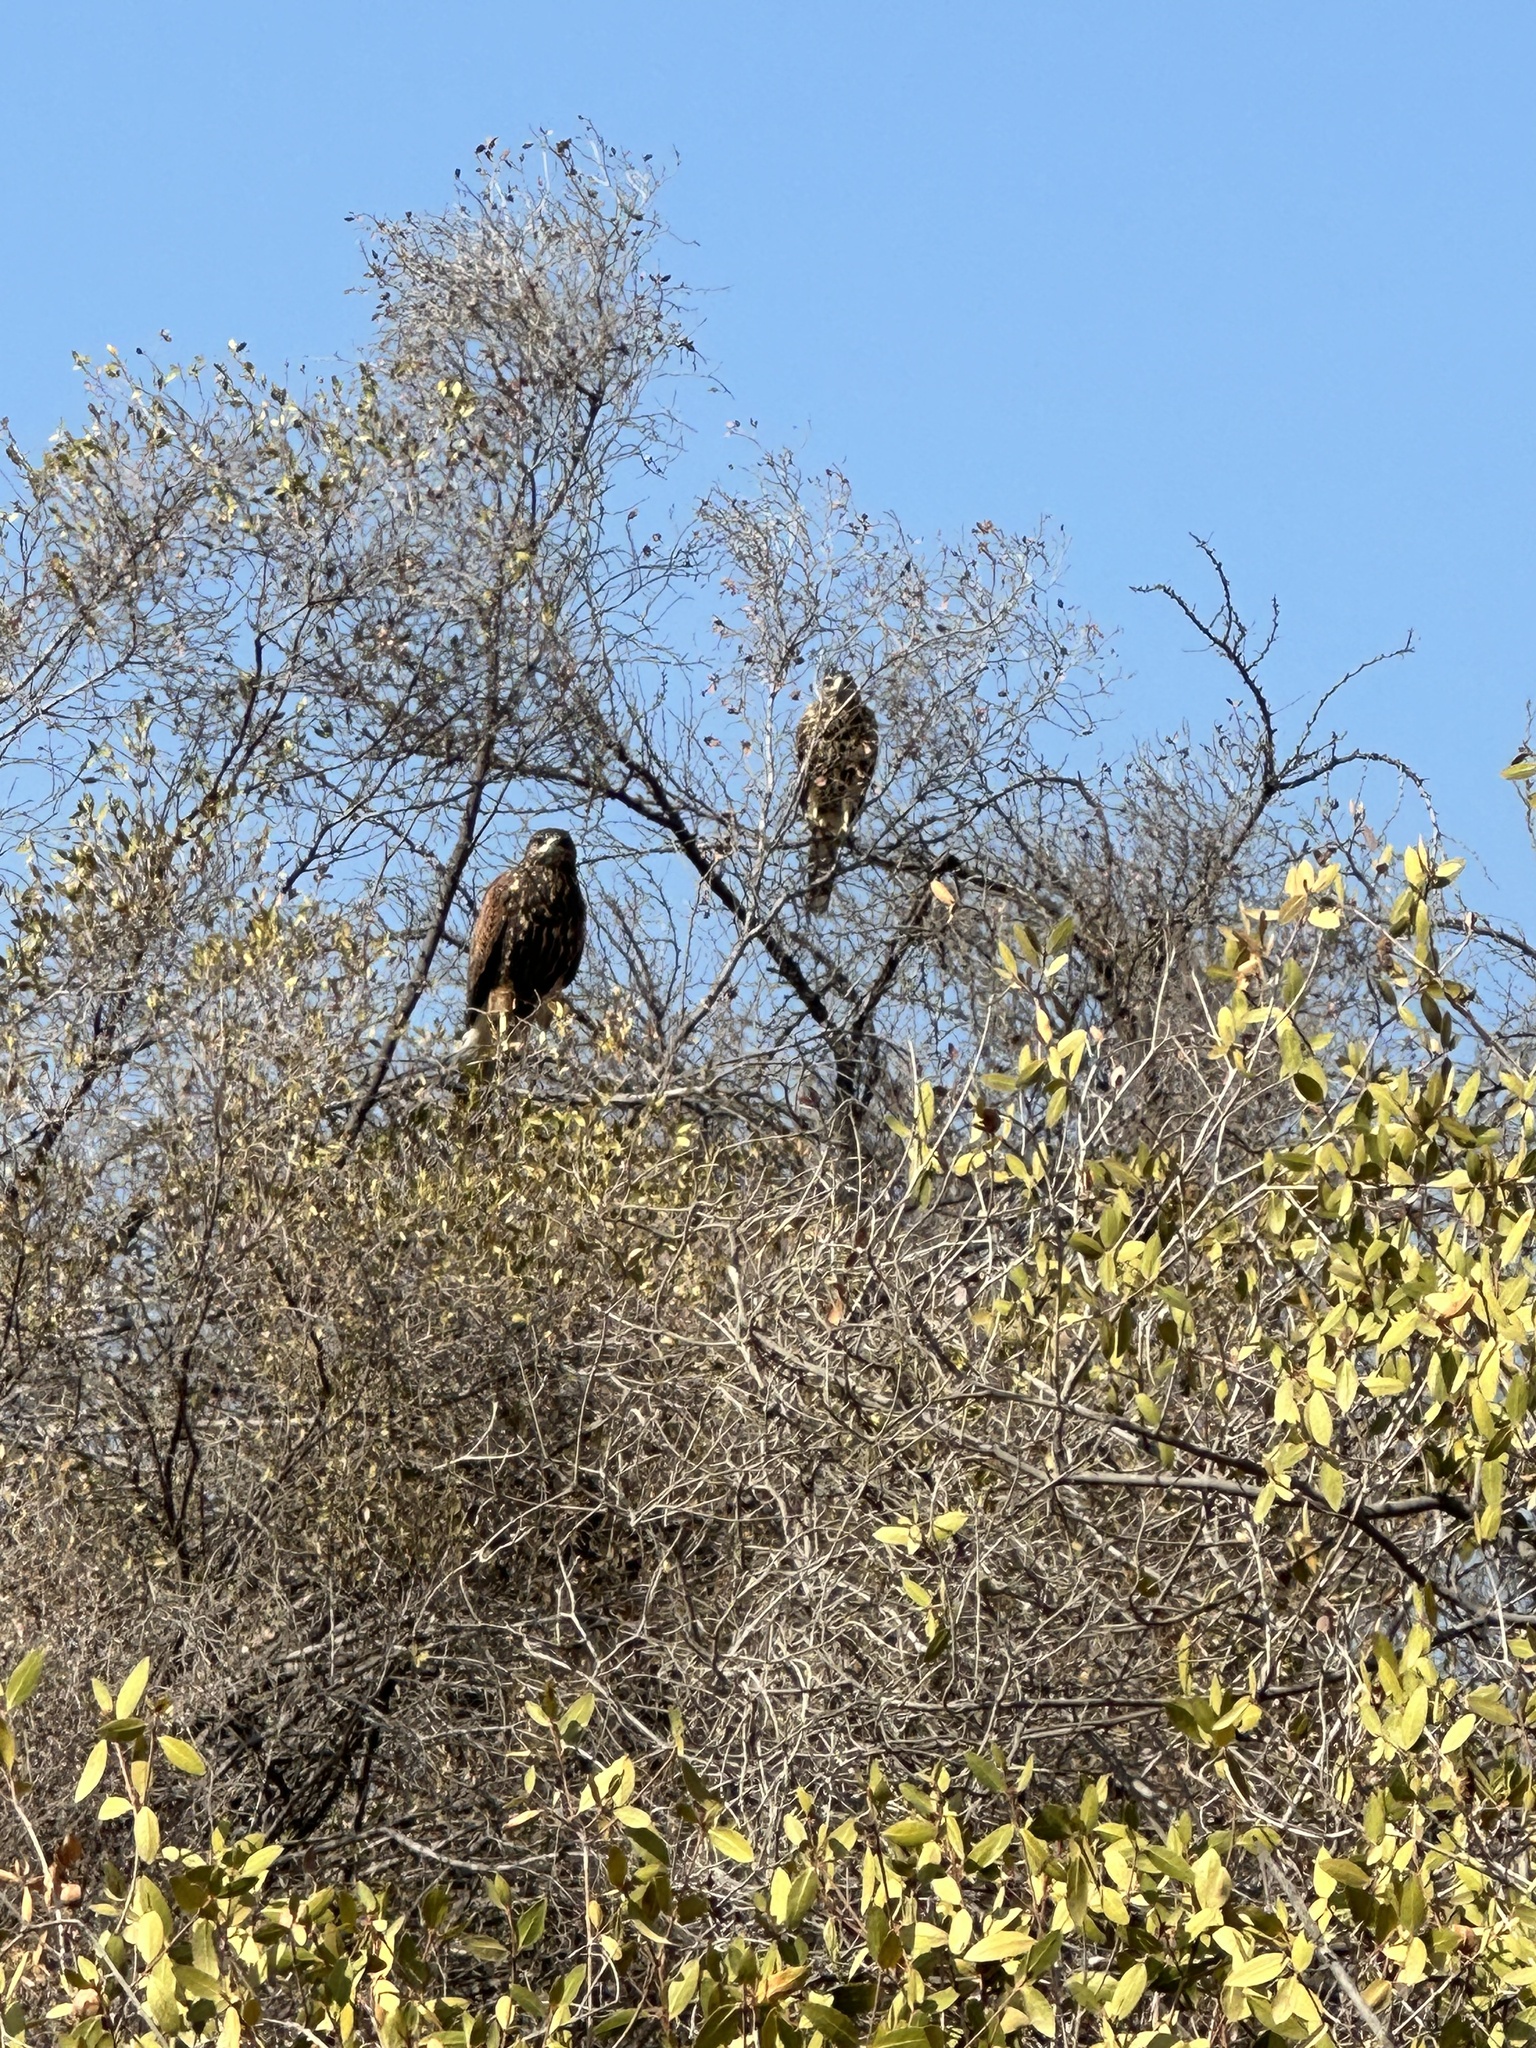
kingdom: Animalia
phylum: Chordata
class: Aves
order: Accipitriformes
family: Accipitridae
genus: Parabuteo
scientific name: Parabuteo unicinctus
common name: Harris's hawk
